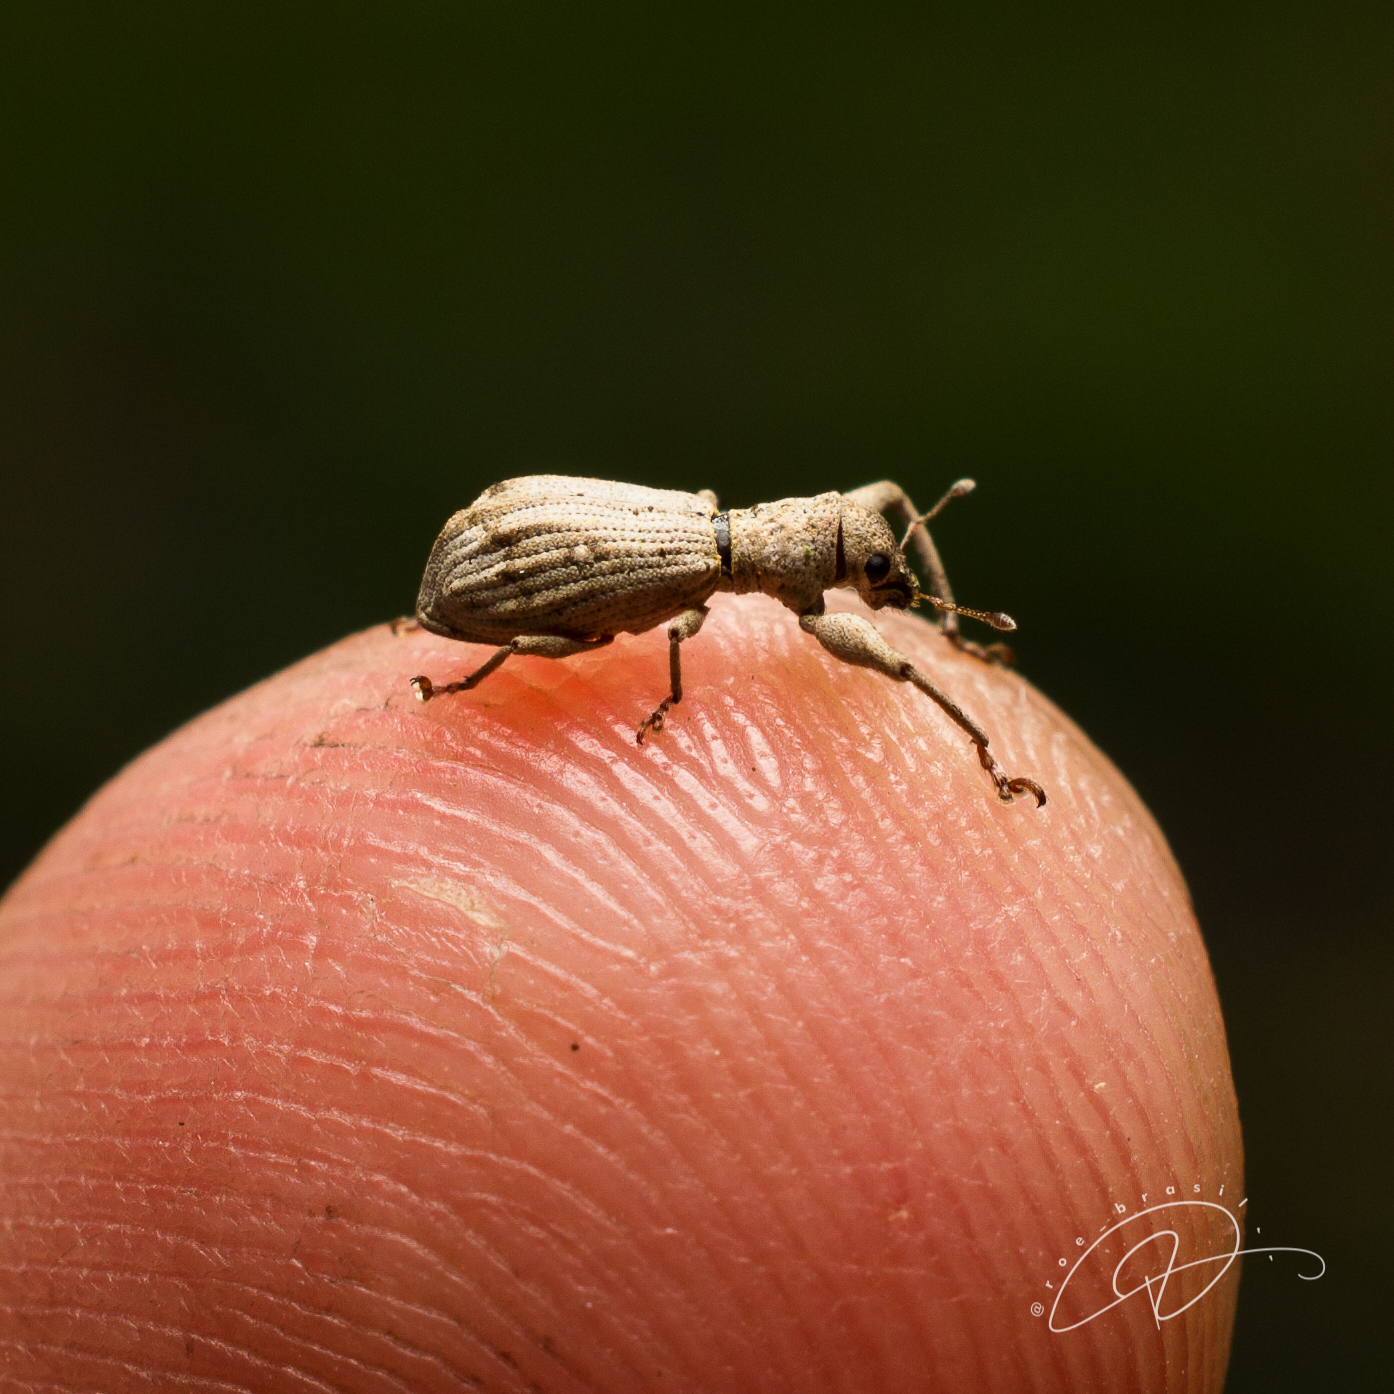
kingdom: Animalia
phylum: Arthropoda
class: Insecta
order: Coleoptera
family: Curculionidae
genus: Pandeleteius
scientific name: Pandeleteius sahlbergi
